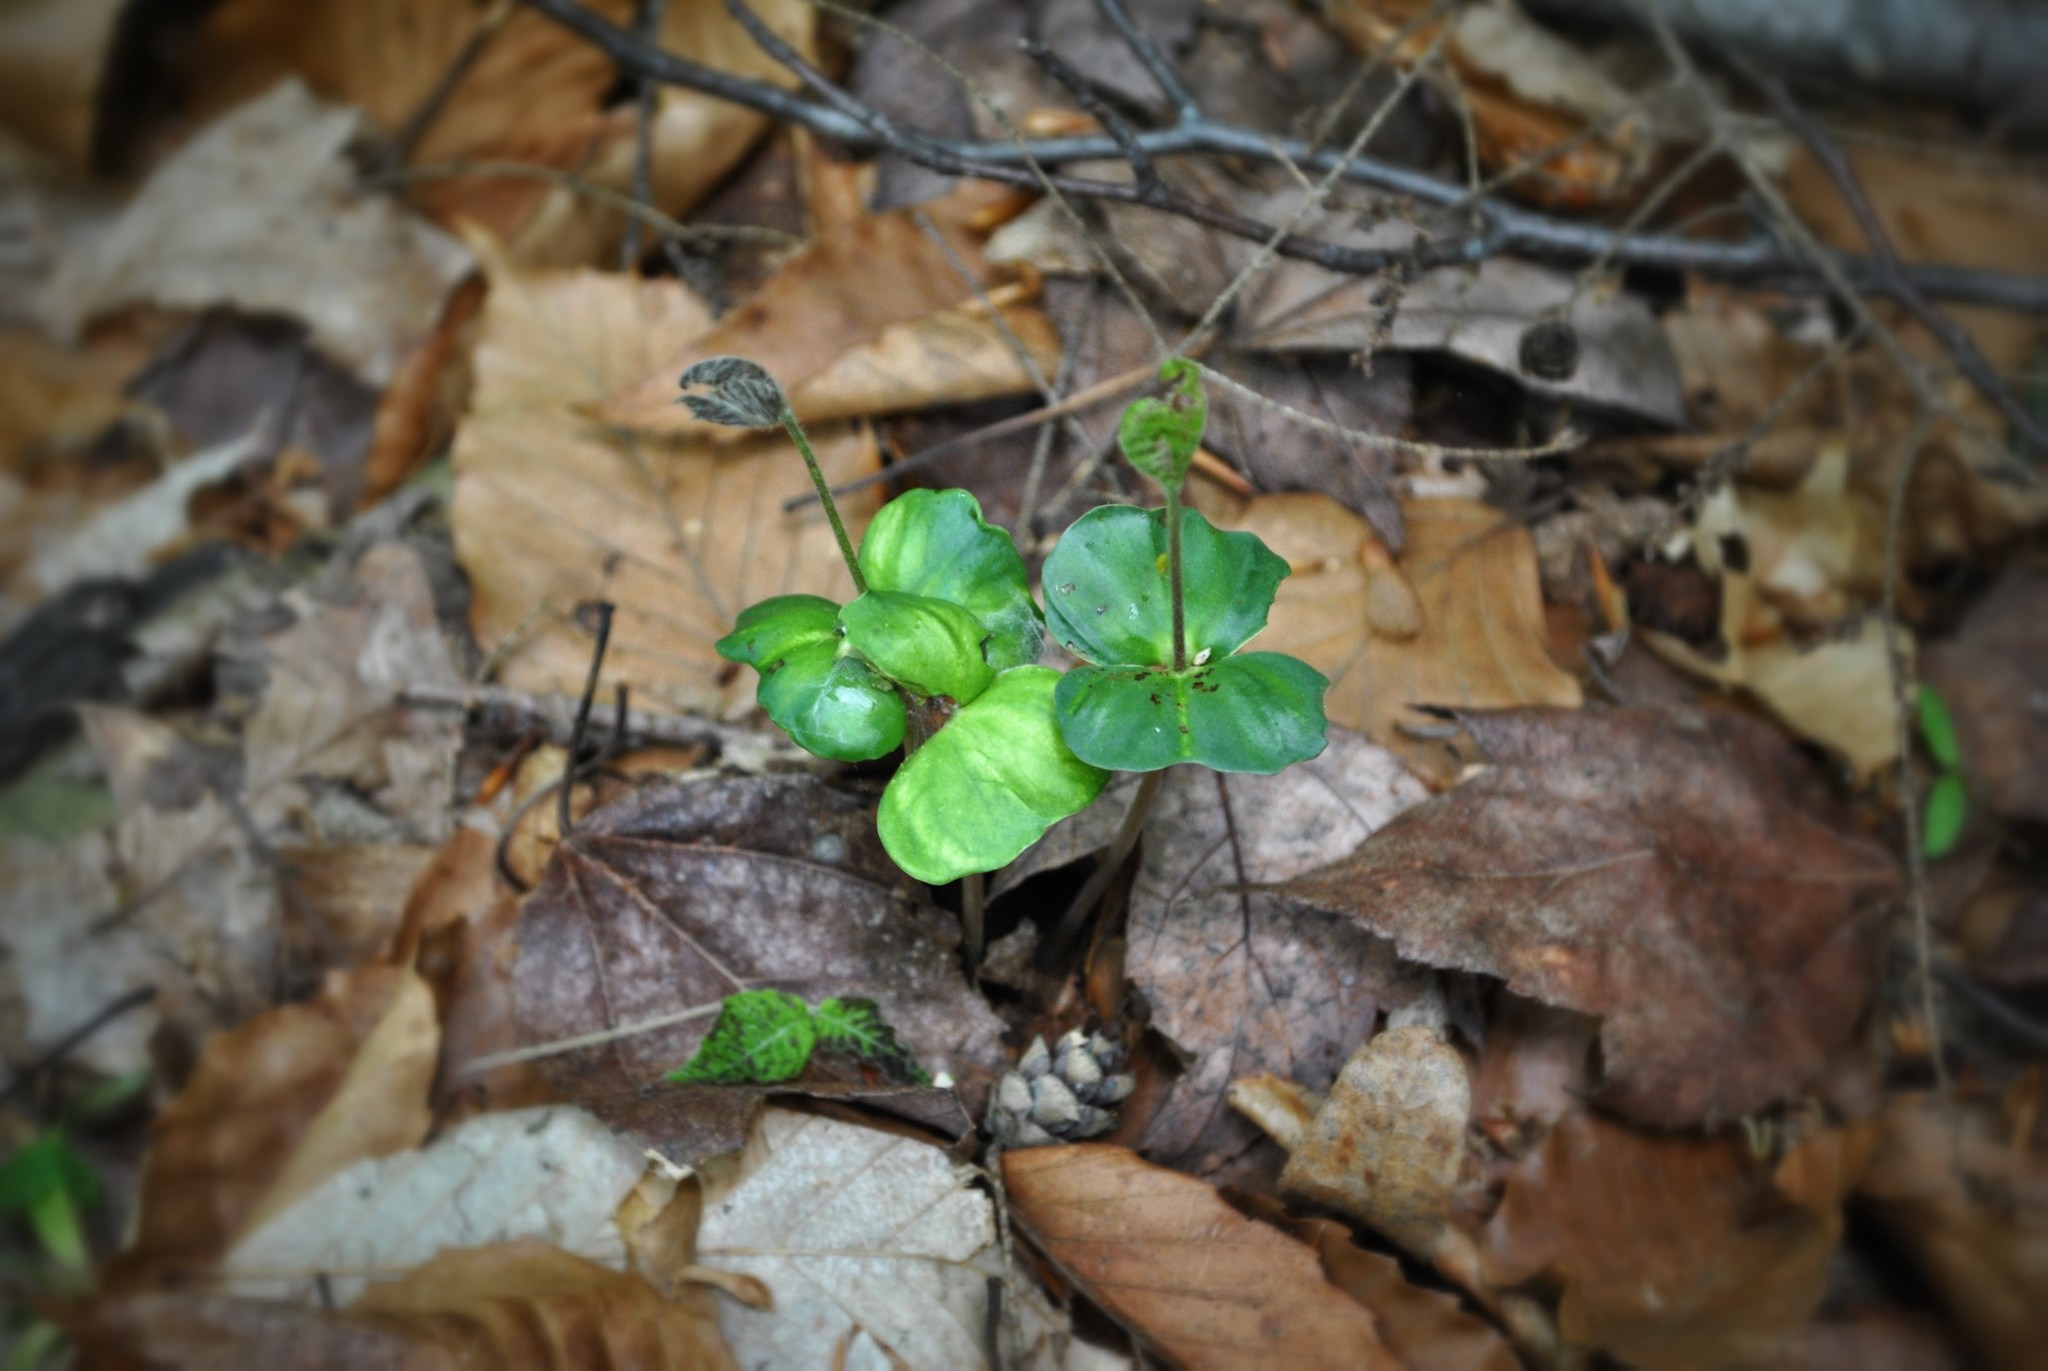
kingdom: Plantae
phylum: Tracheophyta
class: Magnoliopsida
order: Fagales
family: Fagaceae
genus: Fagus
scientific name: Fagus grandifolia
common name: American beech
